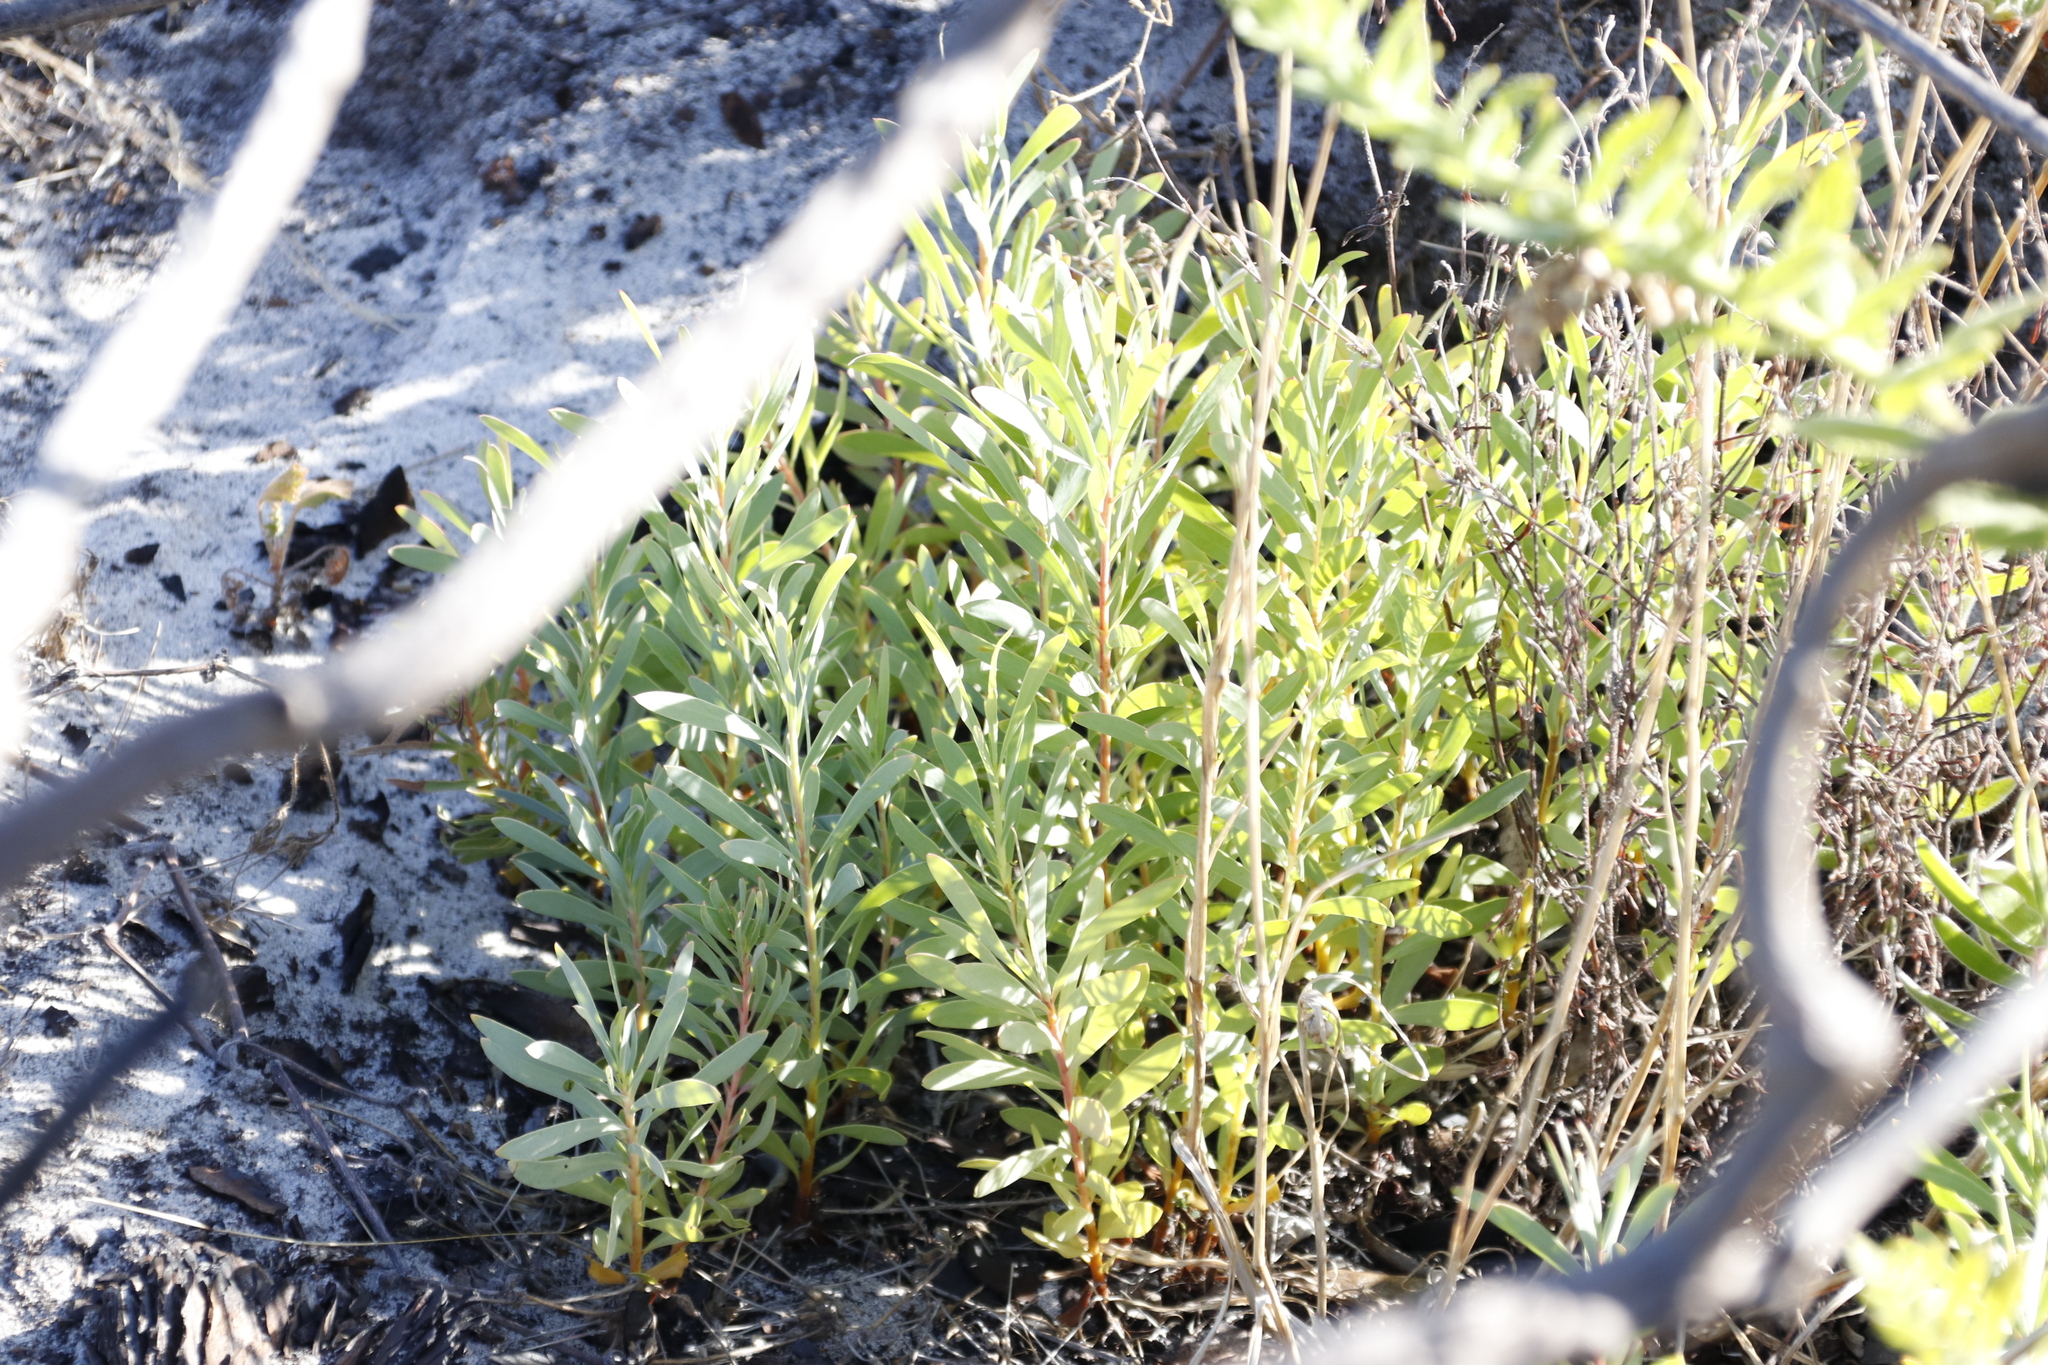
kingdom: Plantae
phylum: Tracheophyta
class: Magnoliopsida
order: Proteales
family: Proteaceae
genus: Protea
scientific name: Protea repens
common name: Sugarbush
